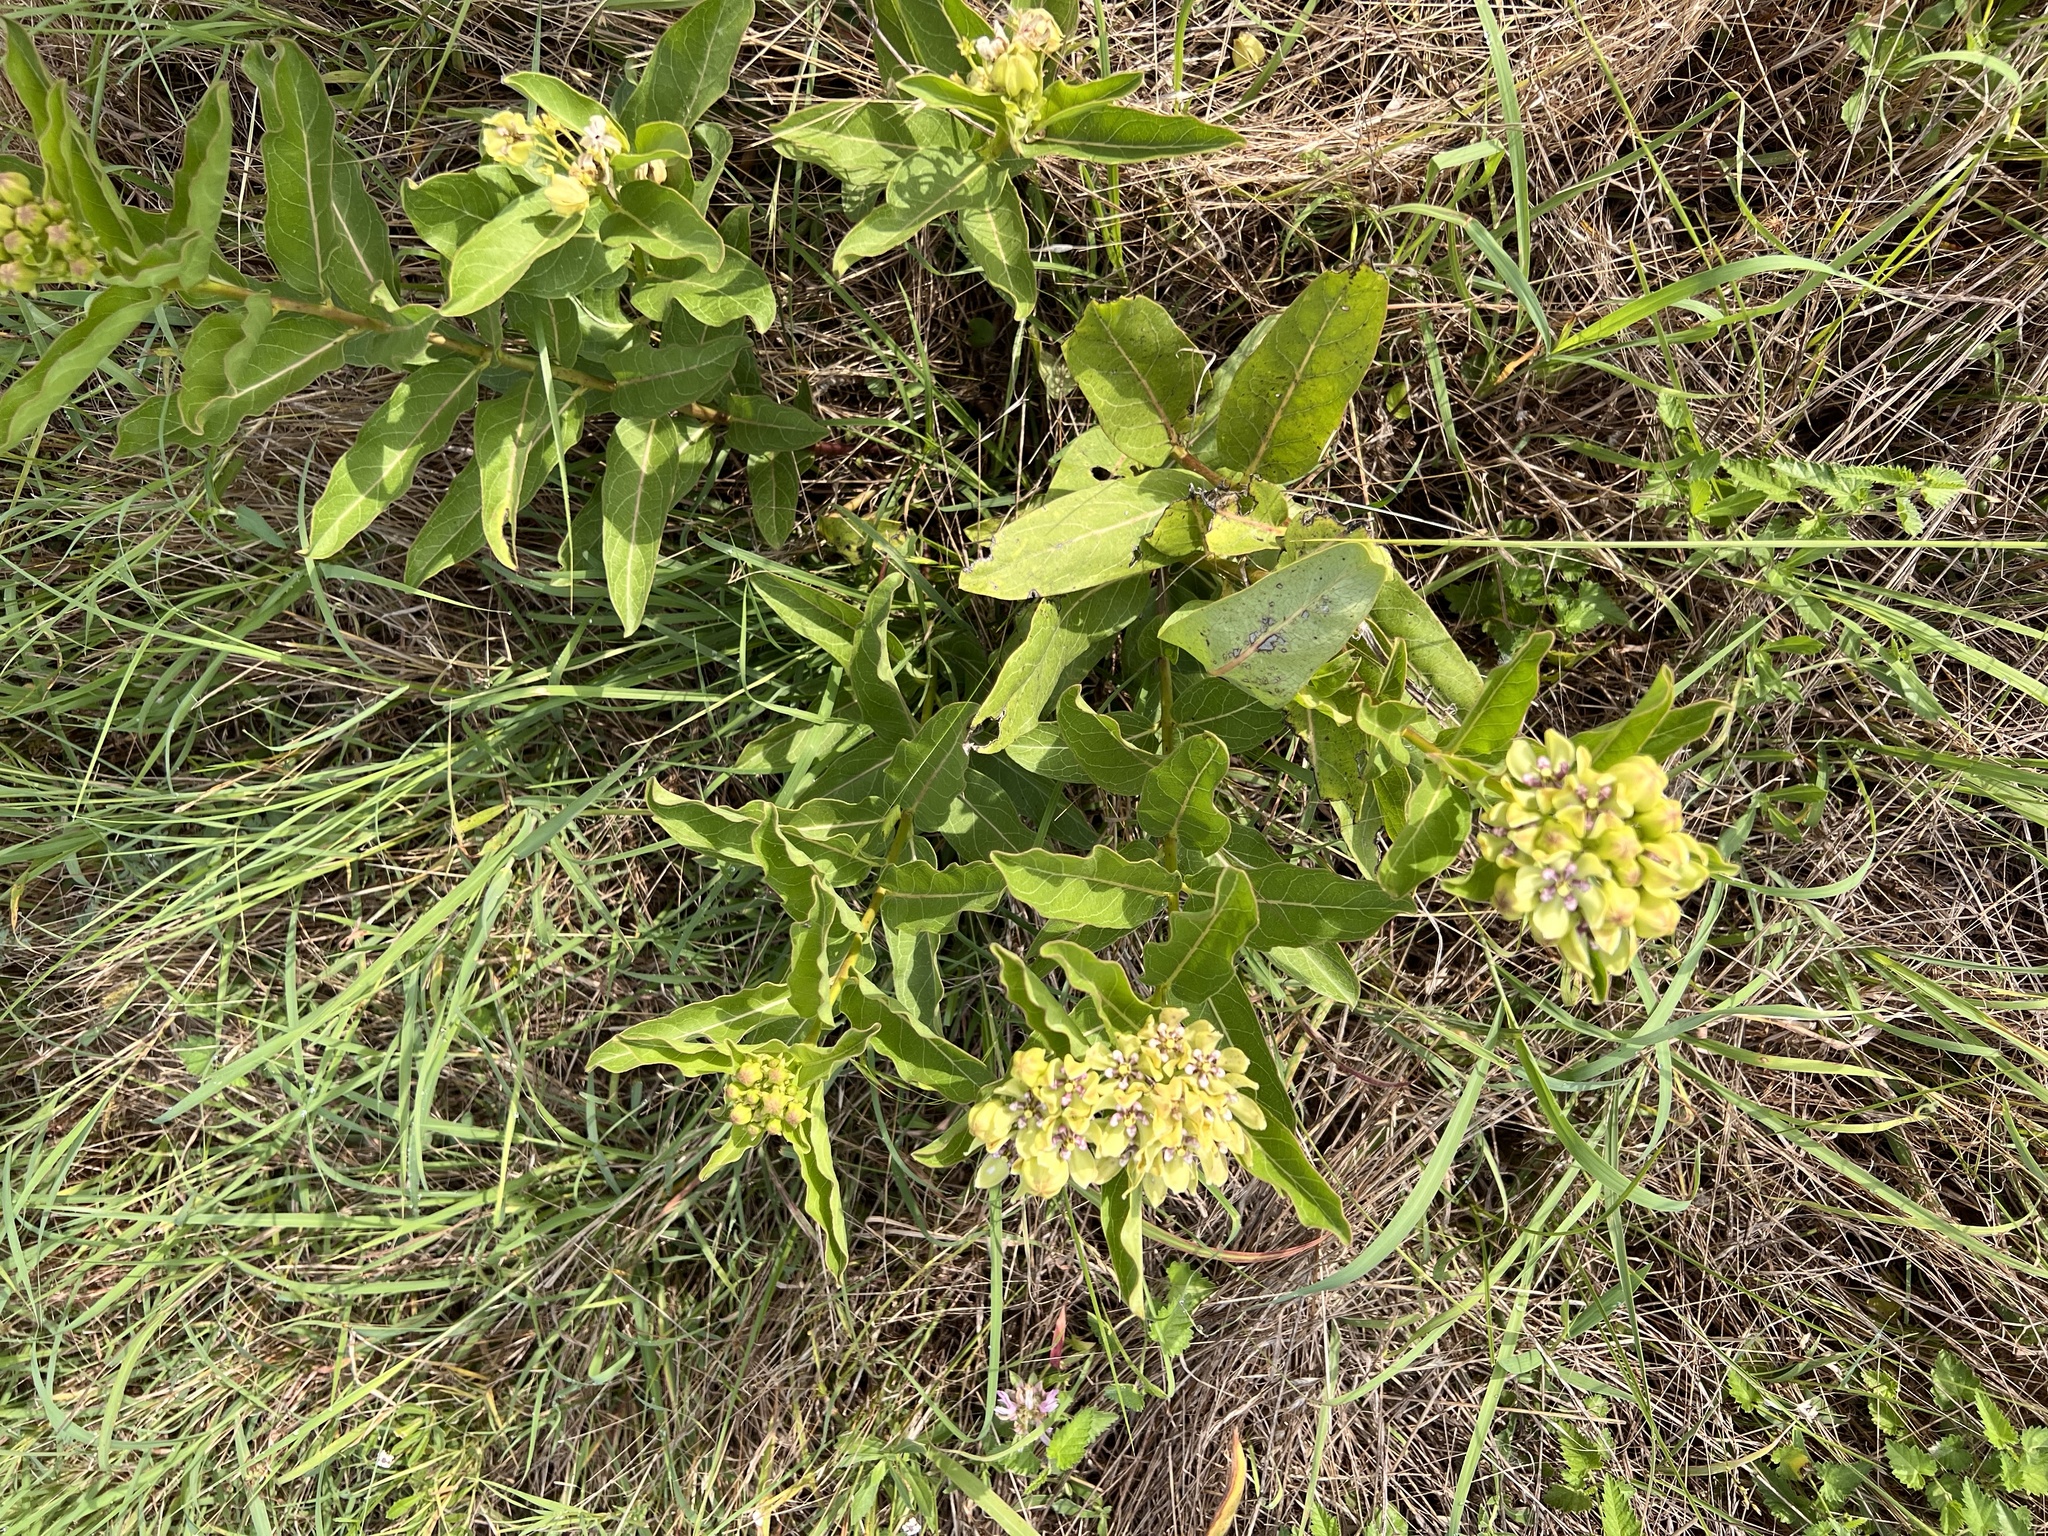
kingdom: Plantae
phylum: Tracheophyta
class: Magnoliopsida
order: Gentianales
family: Apocynaceae
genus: Asclepias
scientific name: Asclepias viridis
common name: Antelope-horns
